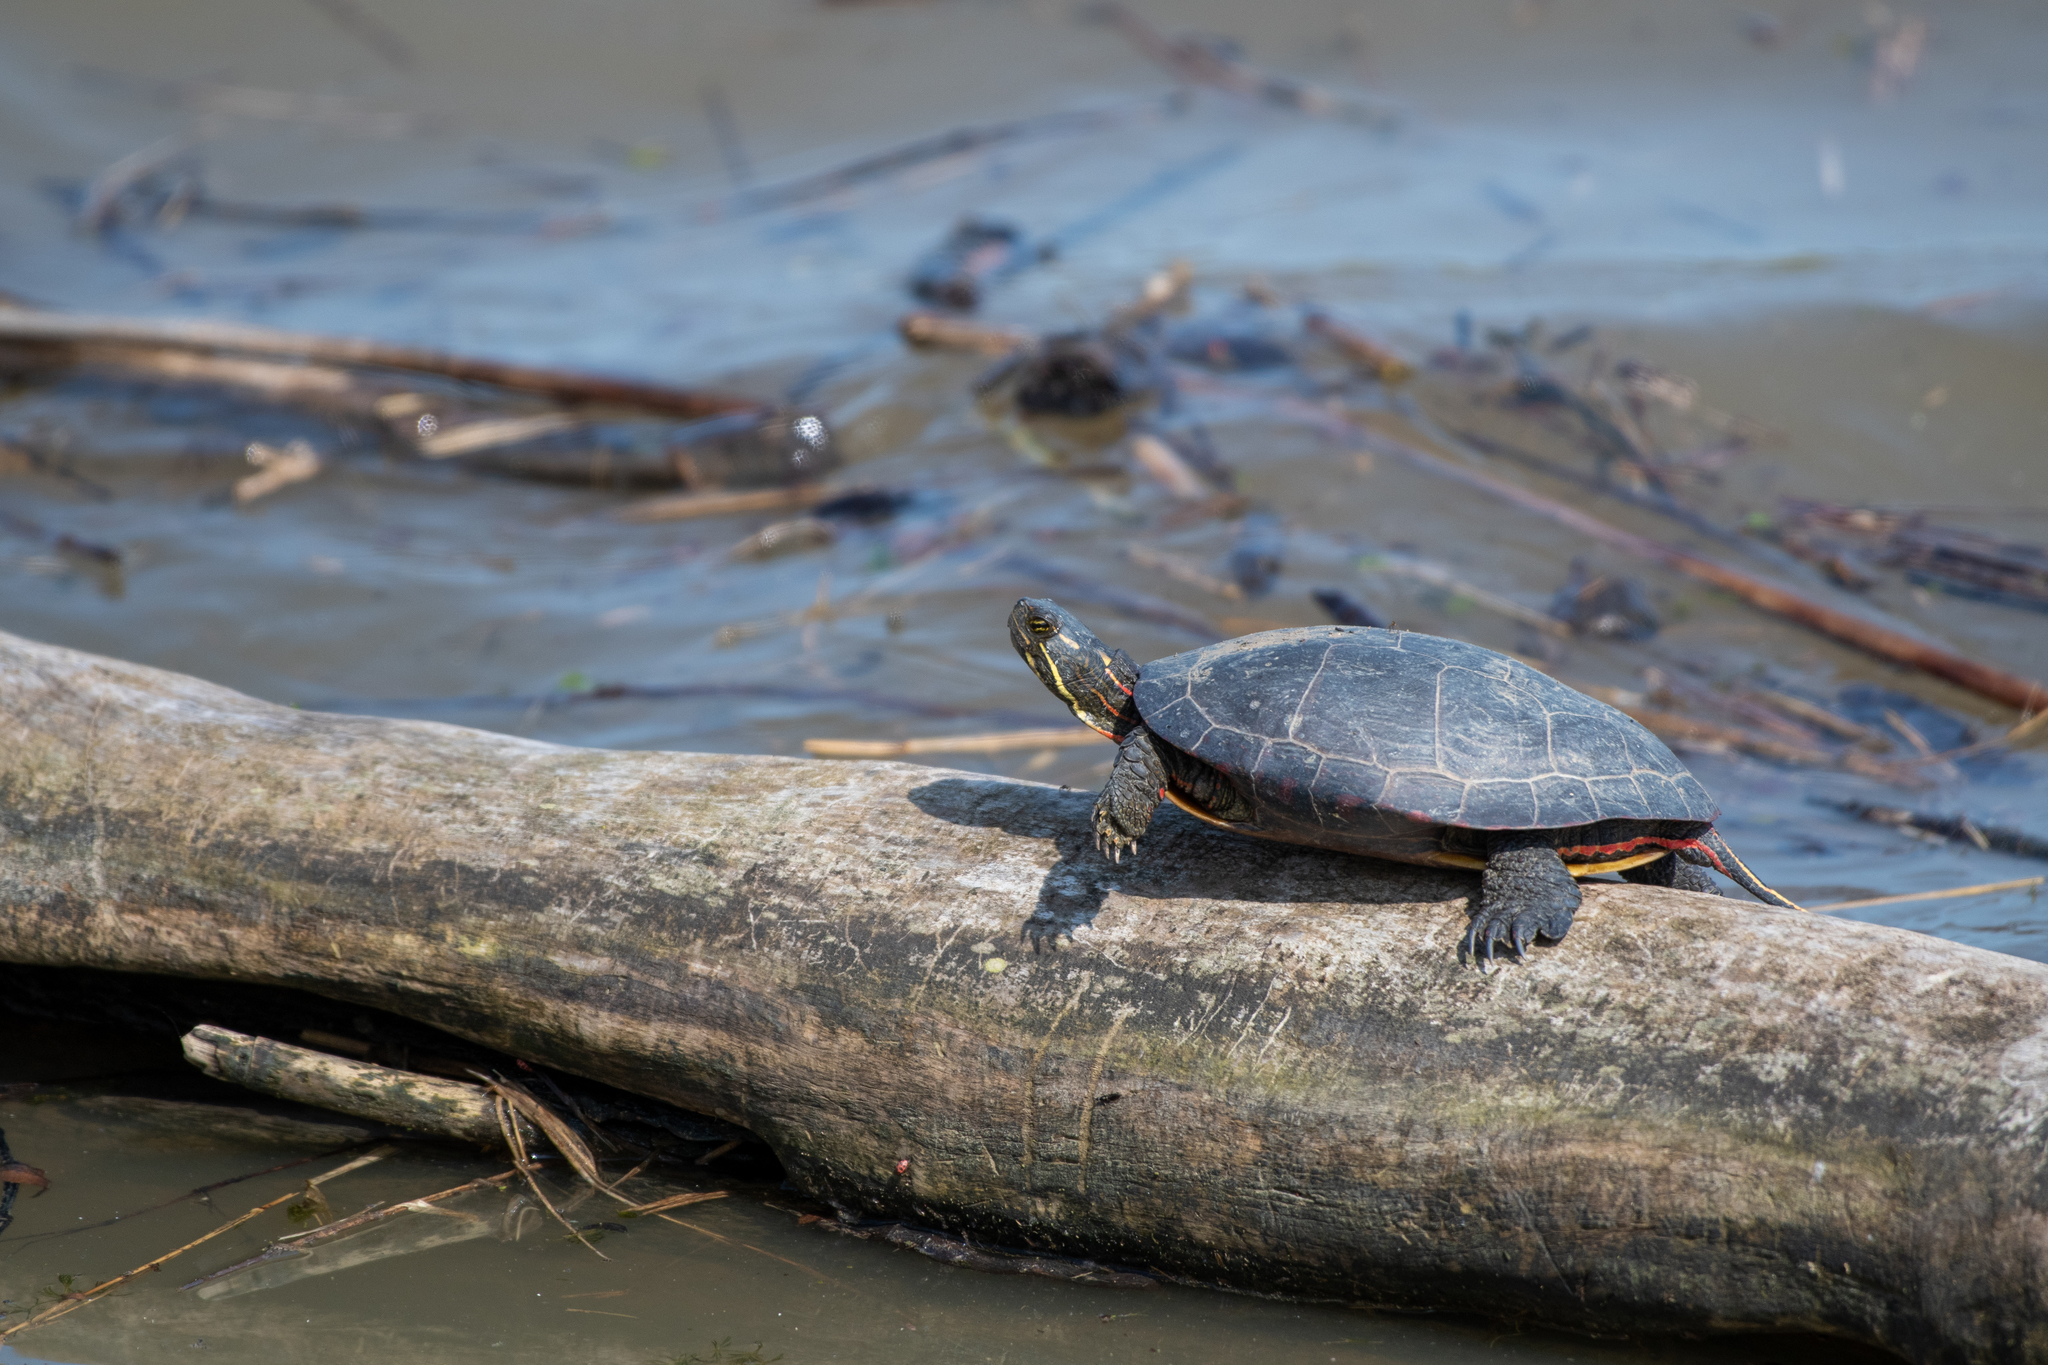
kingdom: Animalia
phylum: Chordata
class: Testudines
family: Emydidae
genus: Chrysemys
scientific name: Chrysemys picta
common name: Painted turtle
